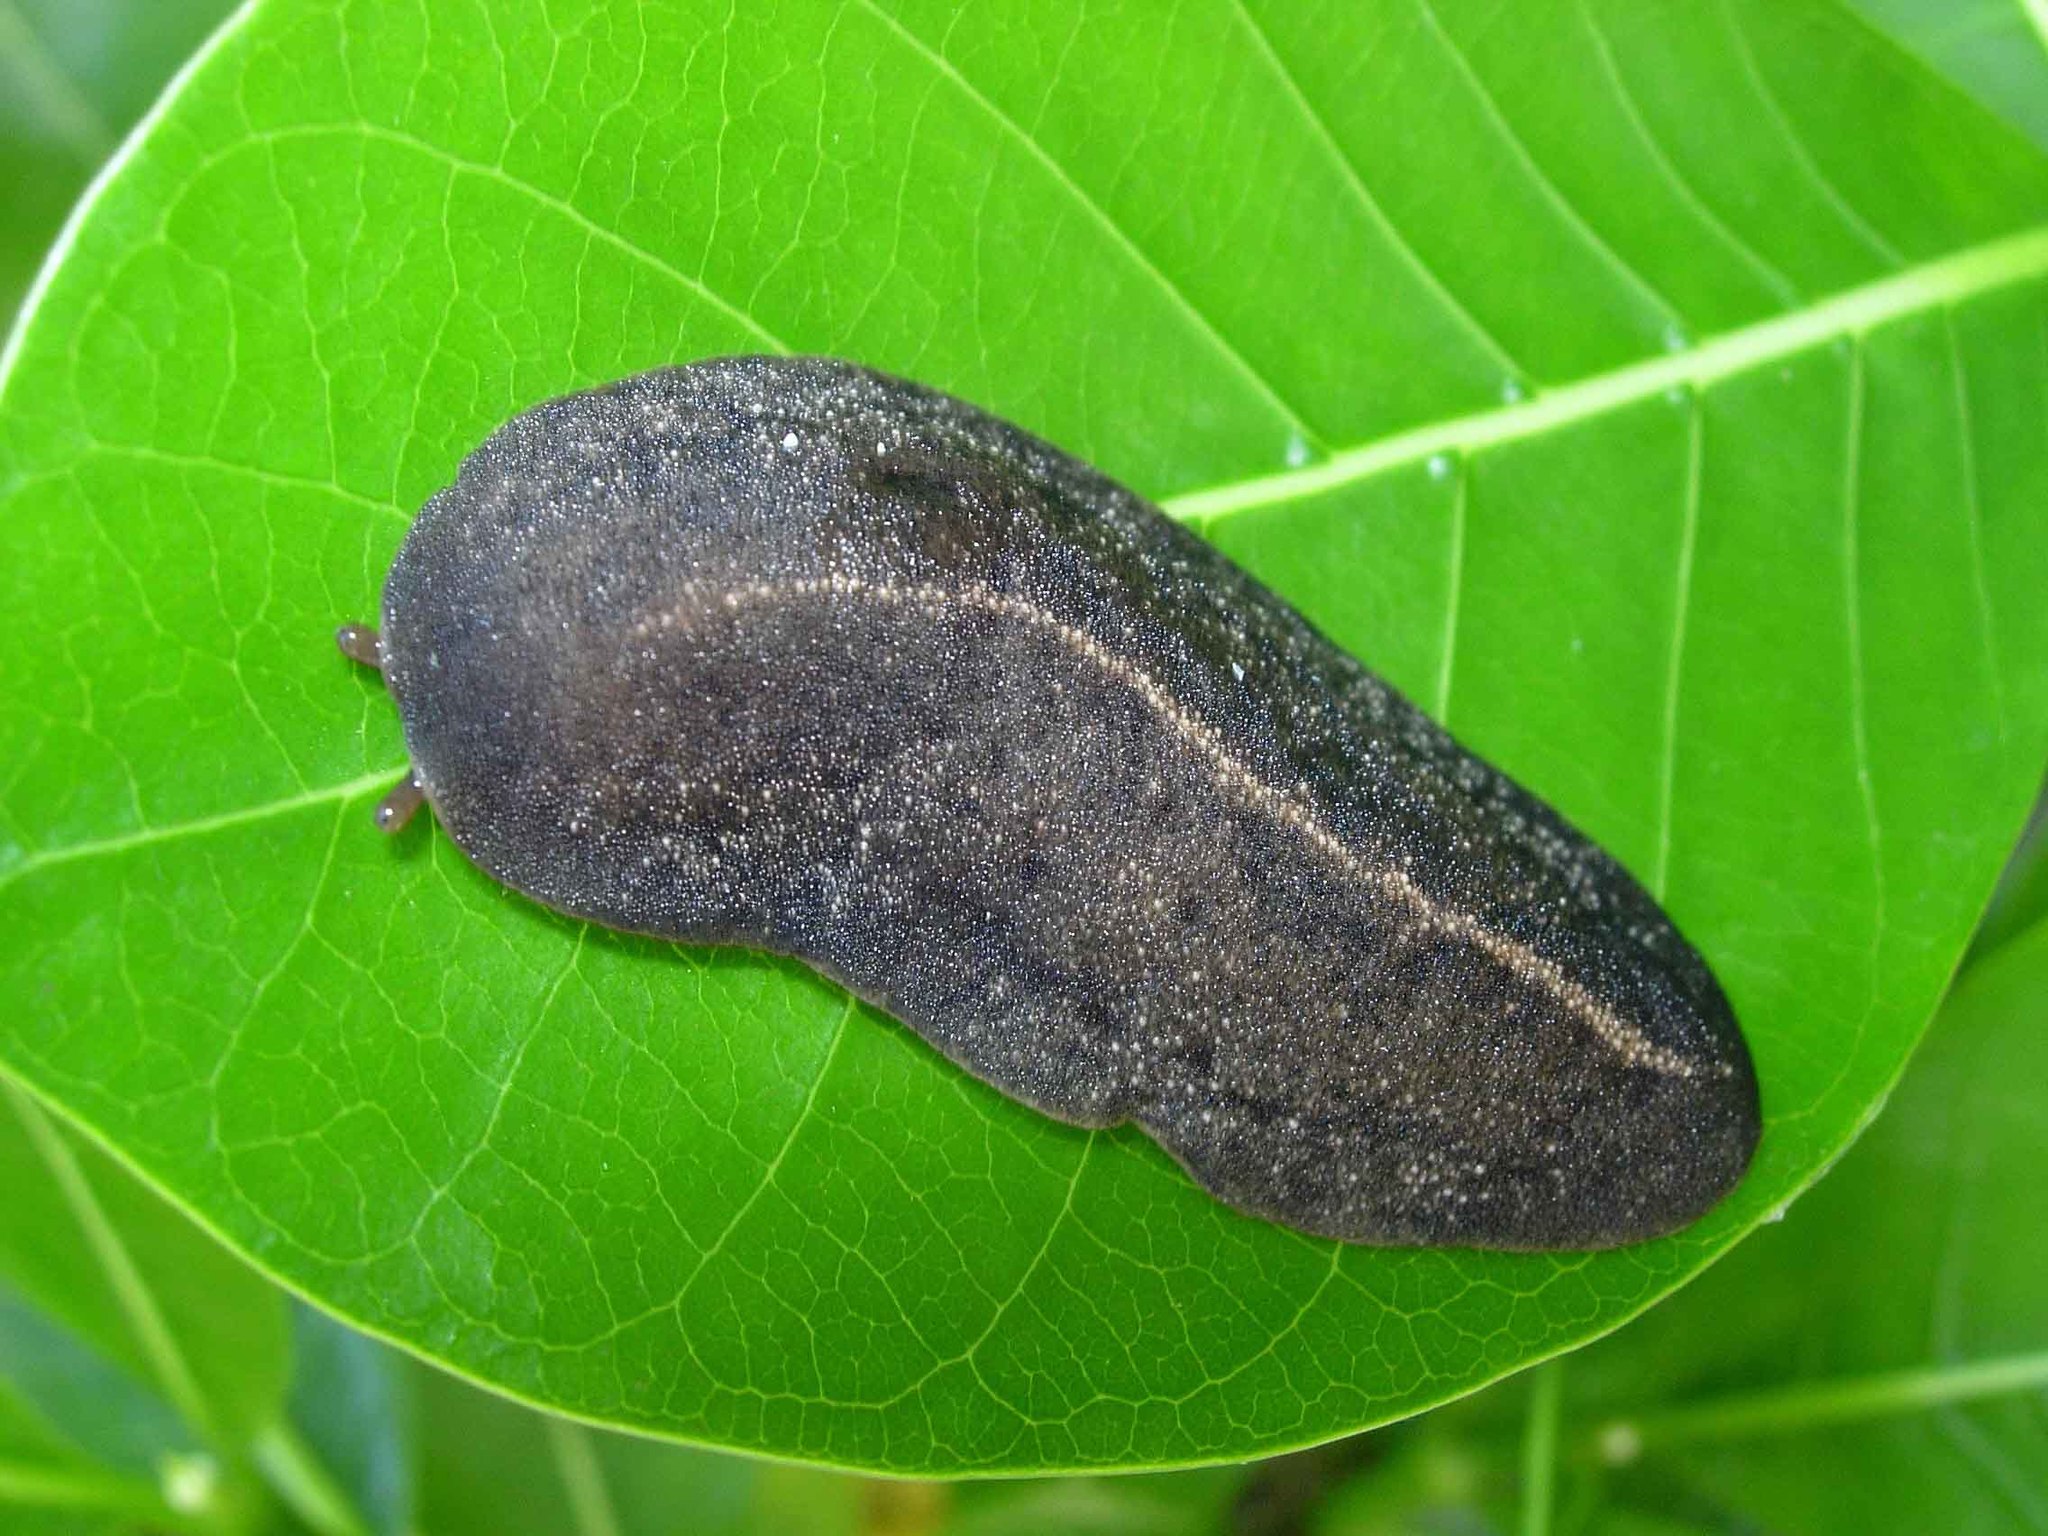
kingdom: Animalia
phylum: Mollusca
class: Gastropoda
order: Systellommatophora
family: Veronicellidae
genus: Laevicaulis
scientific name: Laevicaulis alte
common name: Tropical leatherleaf
